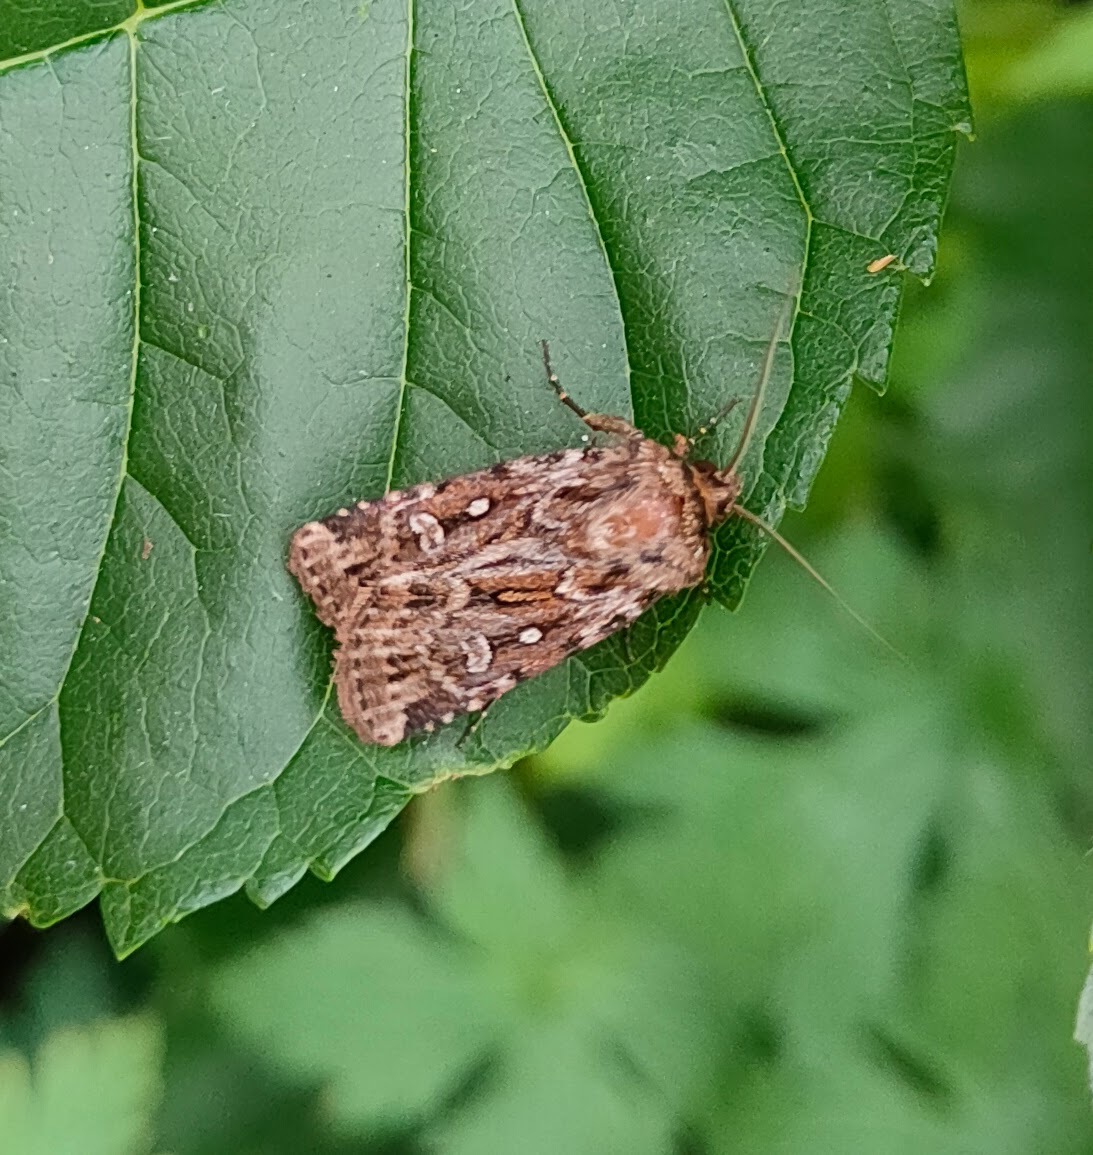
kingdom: Animalia
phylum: Arthropoda
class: Insecta
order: Lepidoptera
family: Noctuidae
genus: Lycophotia
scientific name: Lycophotia porphyrea
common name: True lover's knot
